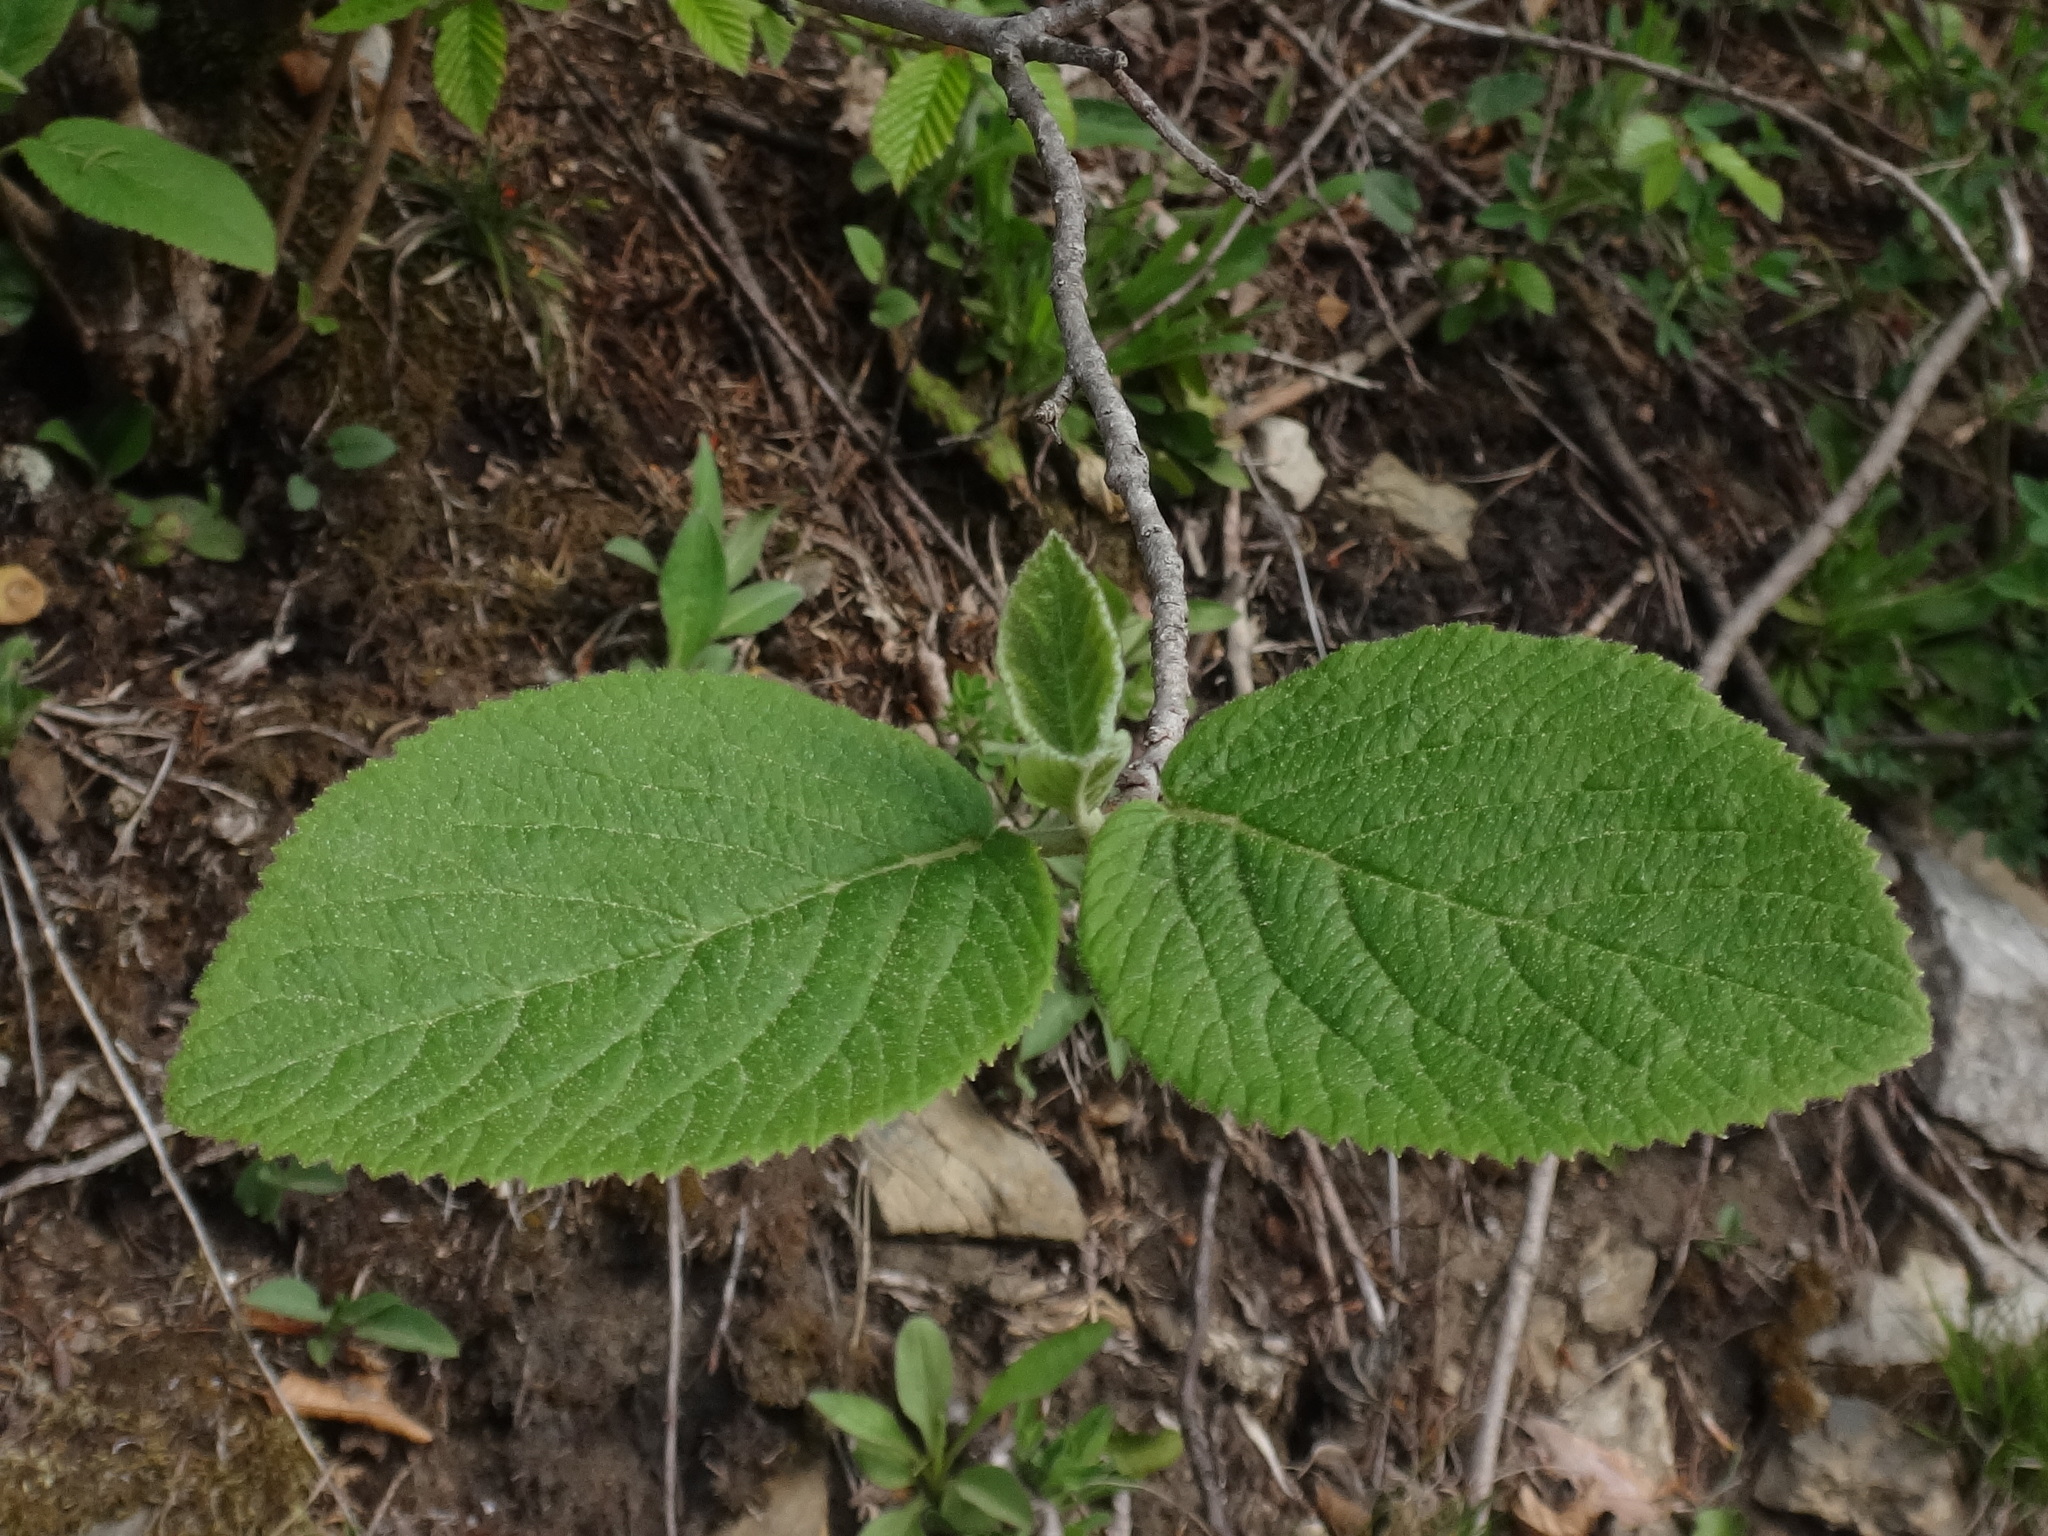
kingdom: Plantae
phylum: Tracheophyta
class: Magnoliopsida
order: Dipsacales
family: Viburnaceae
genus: Viburnum
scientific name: Viburnum lantana
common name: Wayfaring tree
